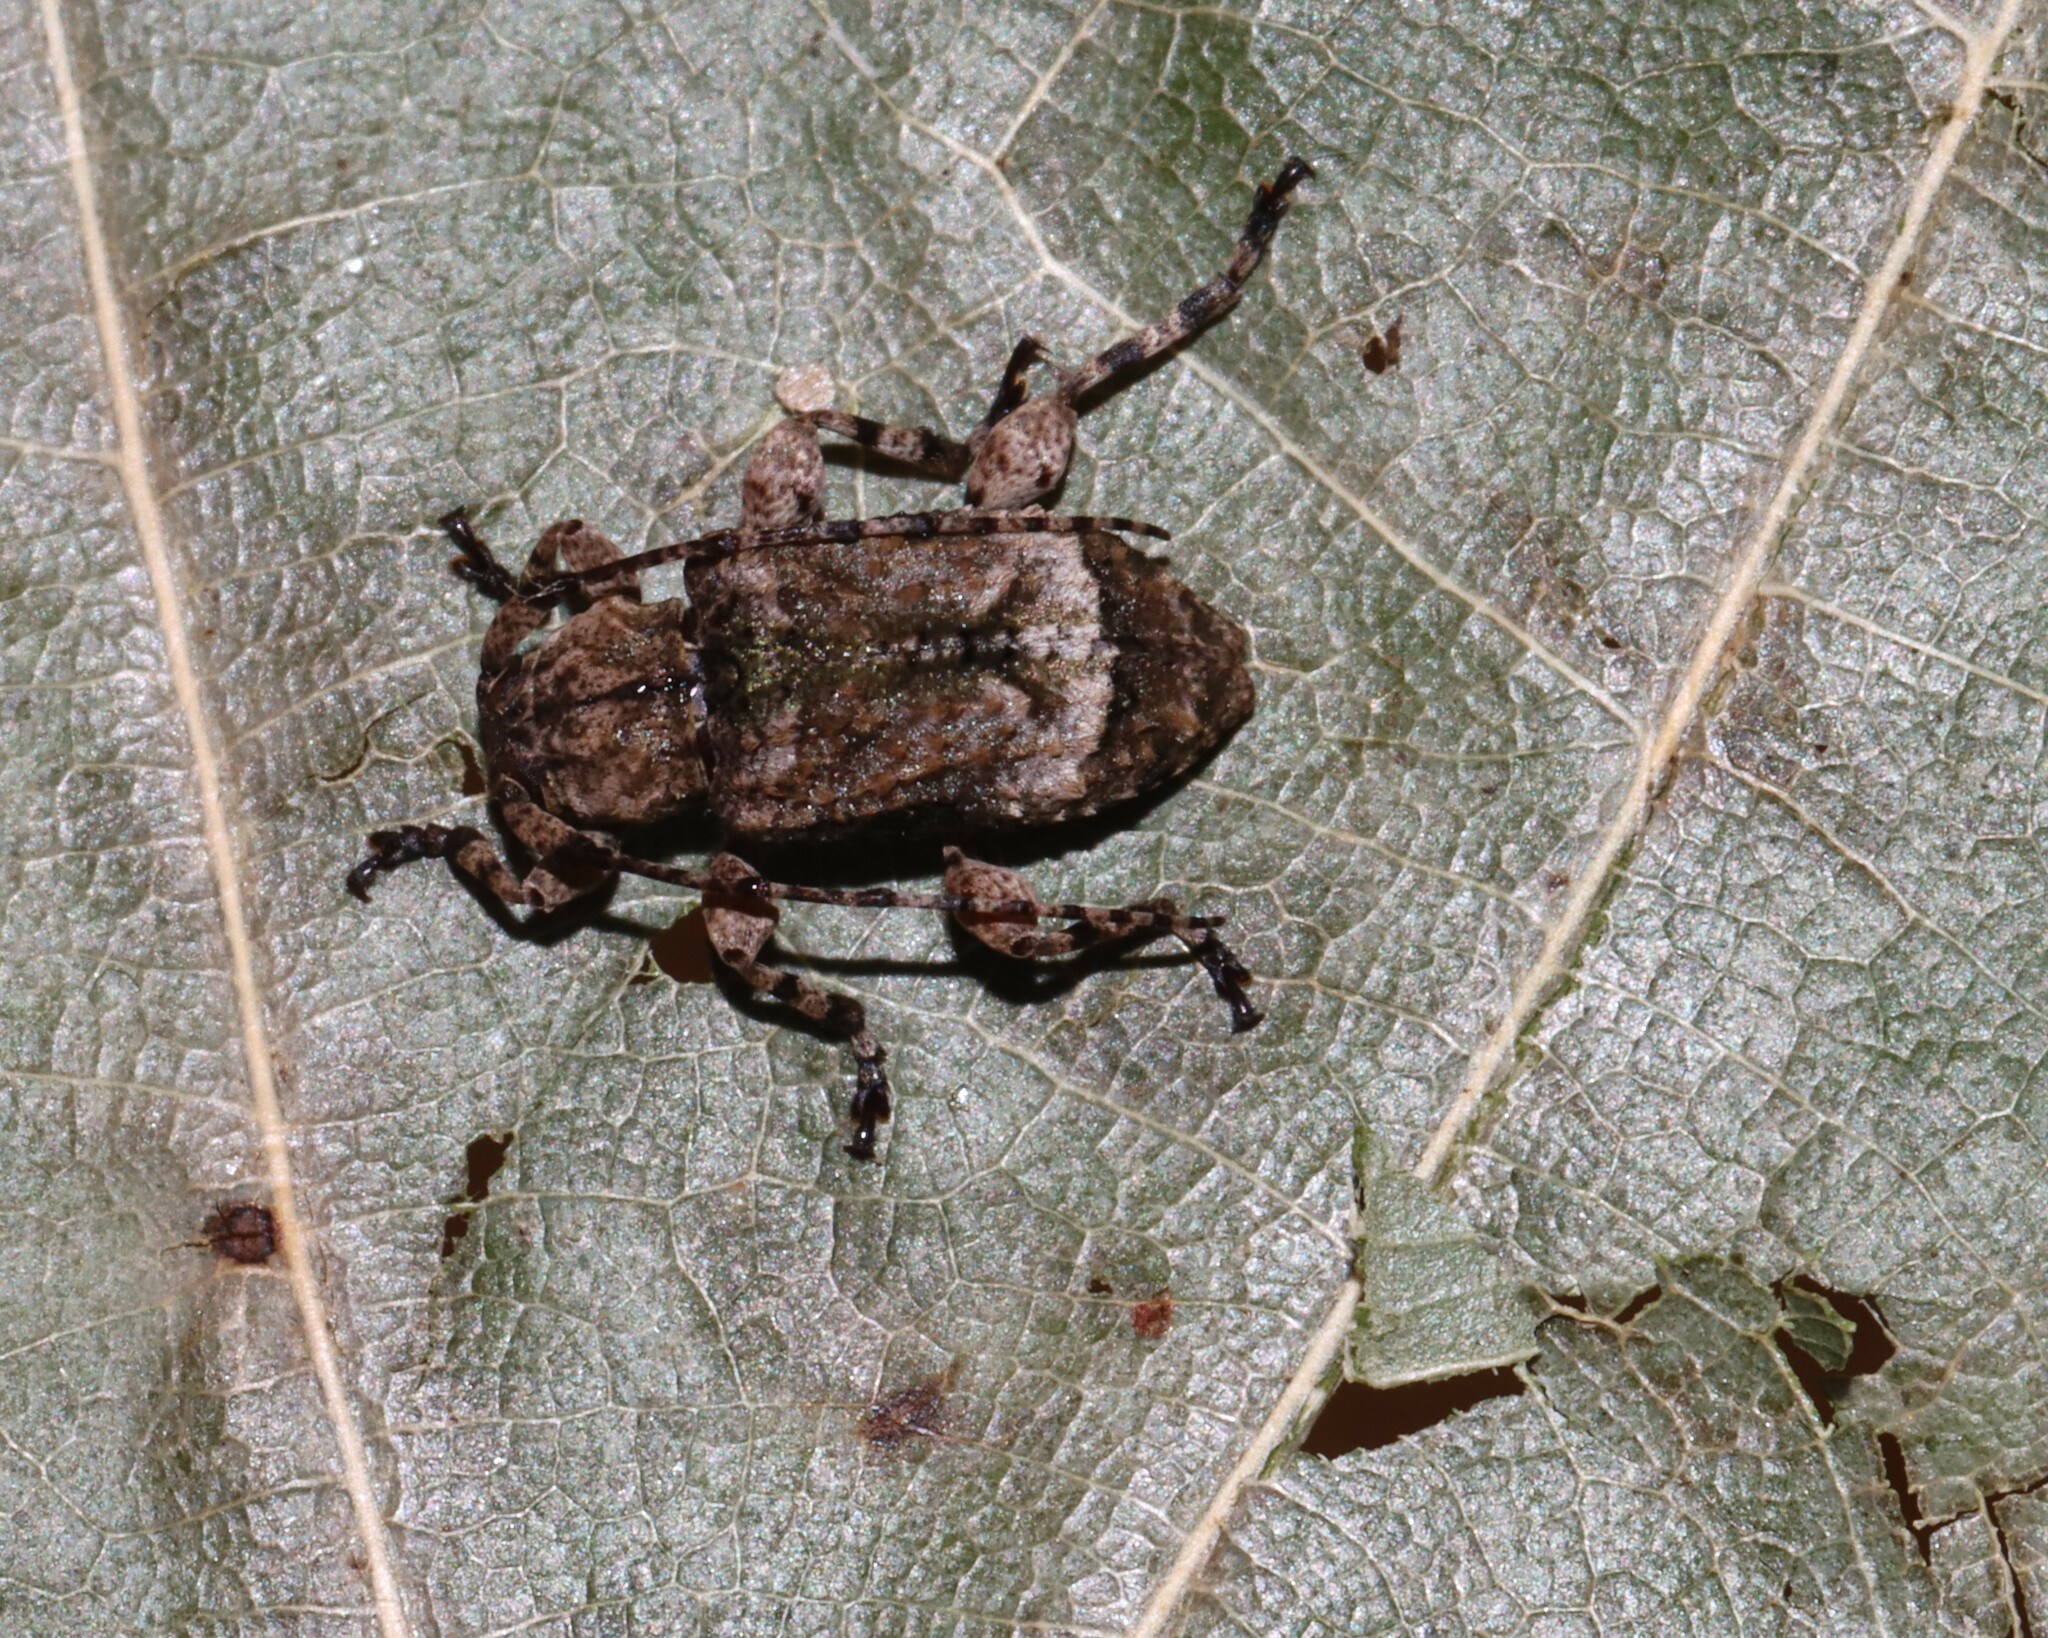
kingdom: Animalia
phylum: Arthropoda
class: Insecta
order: Coleoptera
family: Cerambycidae
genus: Leptostylus
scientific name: Leptostylus transversus
